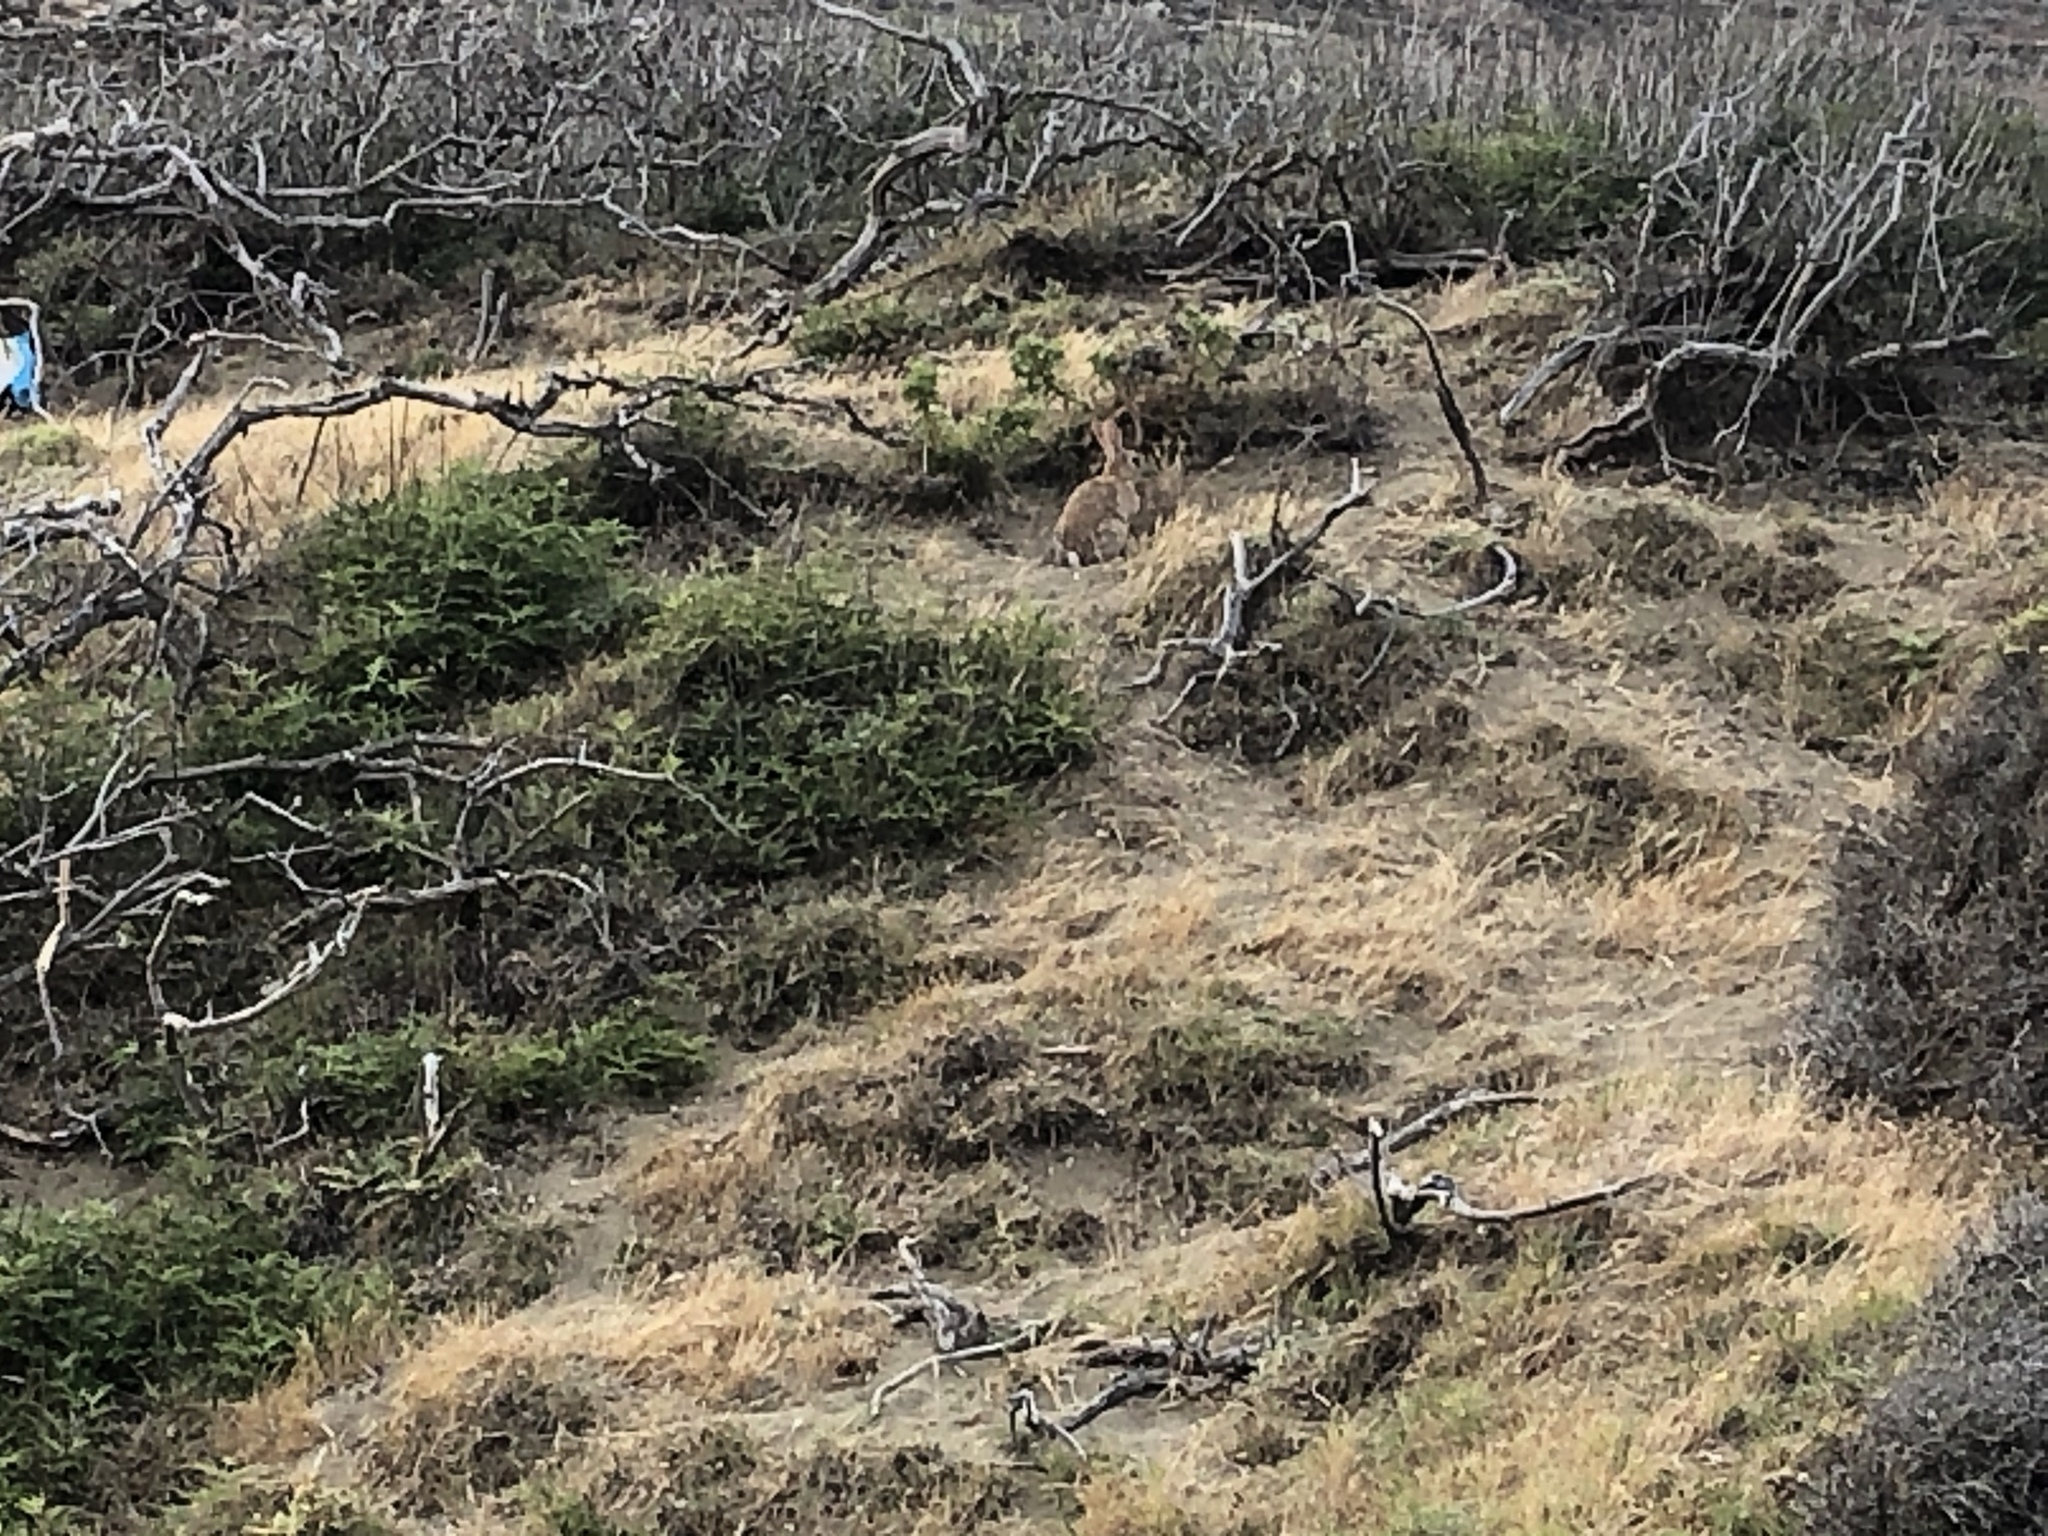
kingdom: Animalia
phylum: Chordata
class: Mammalia
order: Lagomorpha
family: Leporidae
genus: Oryctolagus
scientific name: Oryctolagus cuniculus
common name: European rabbit
